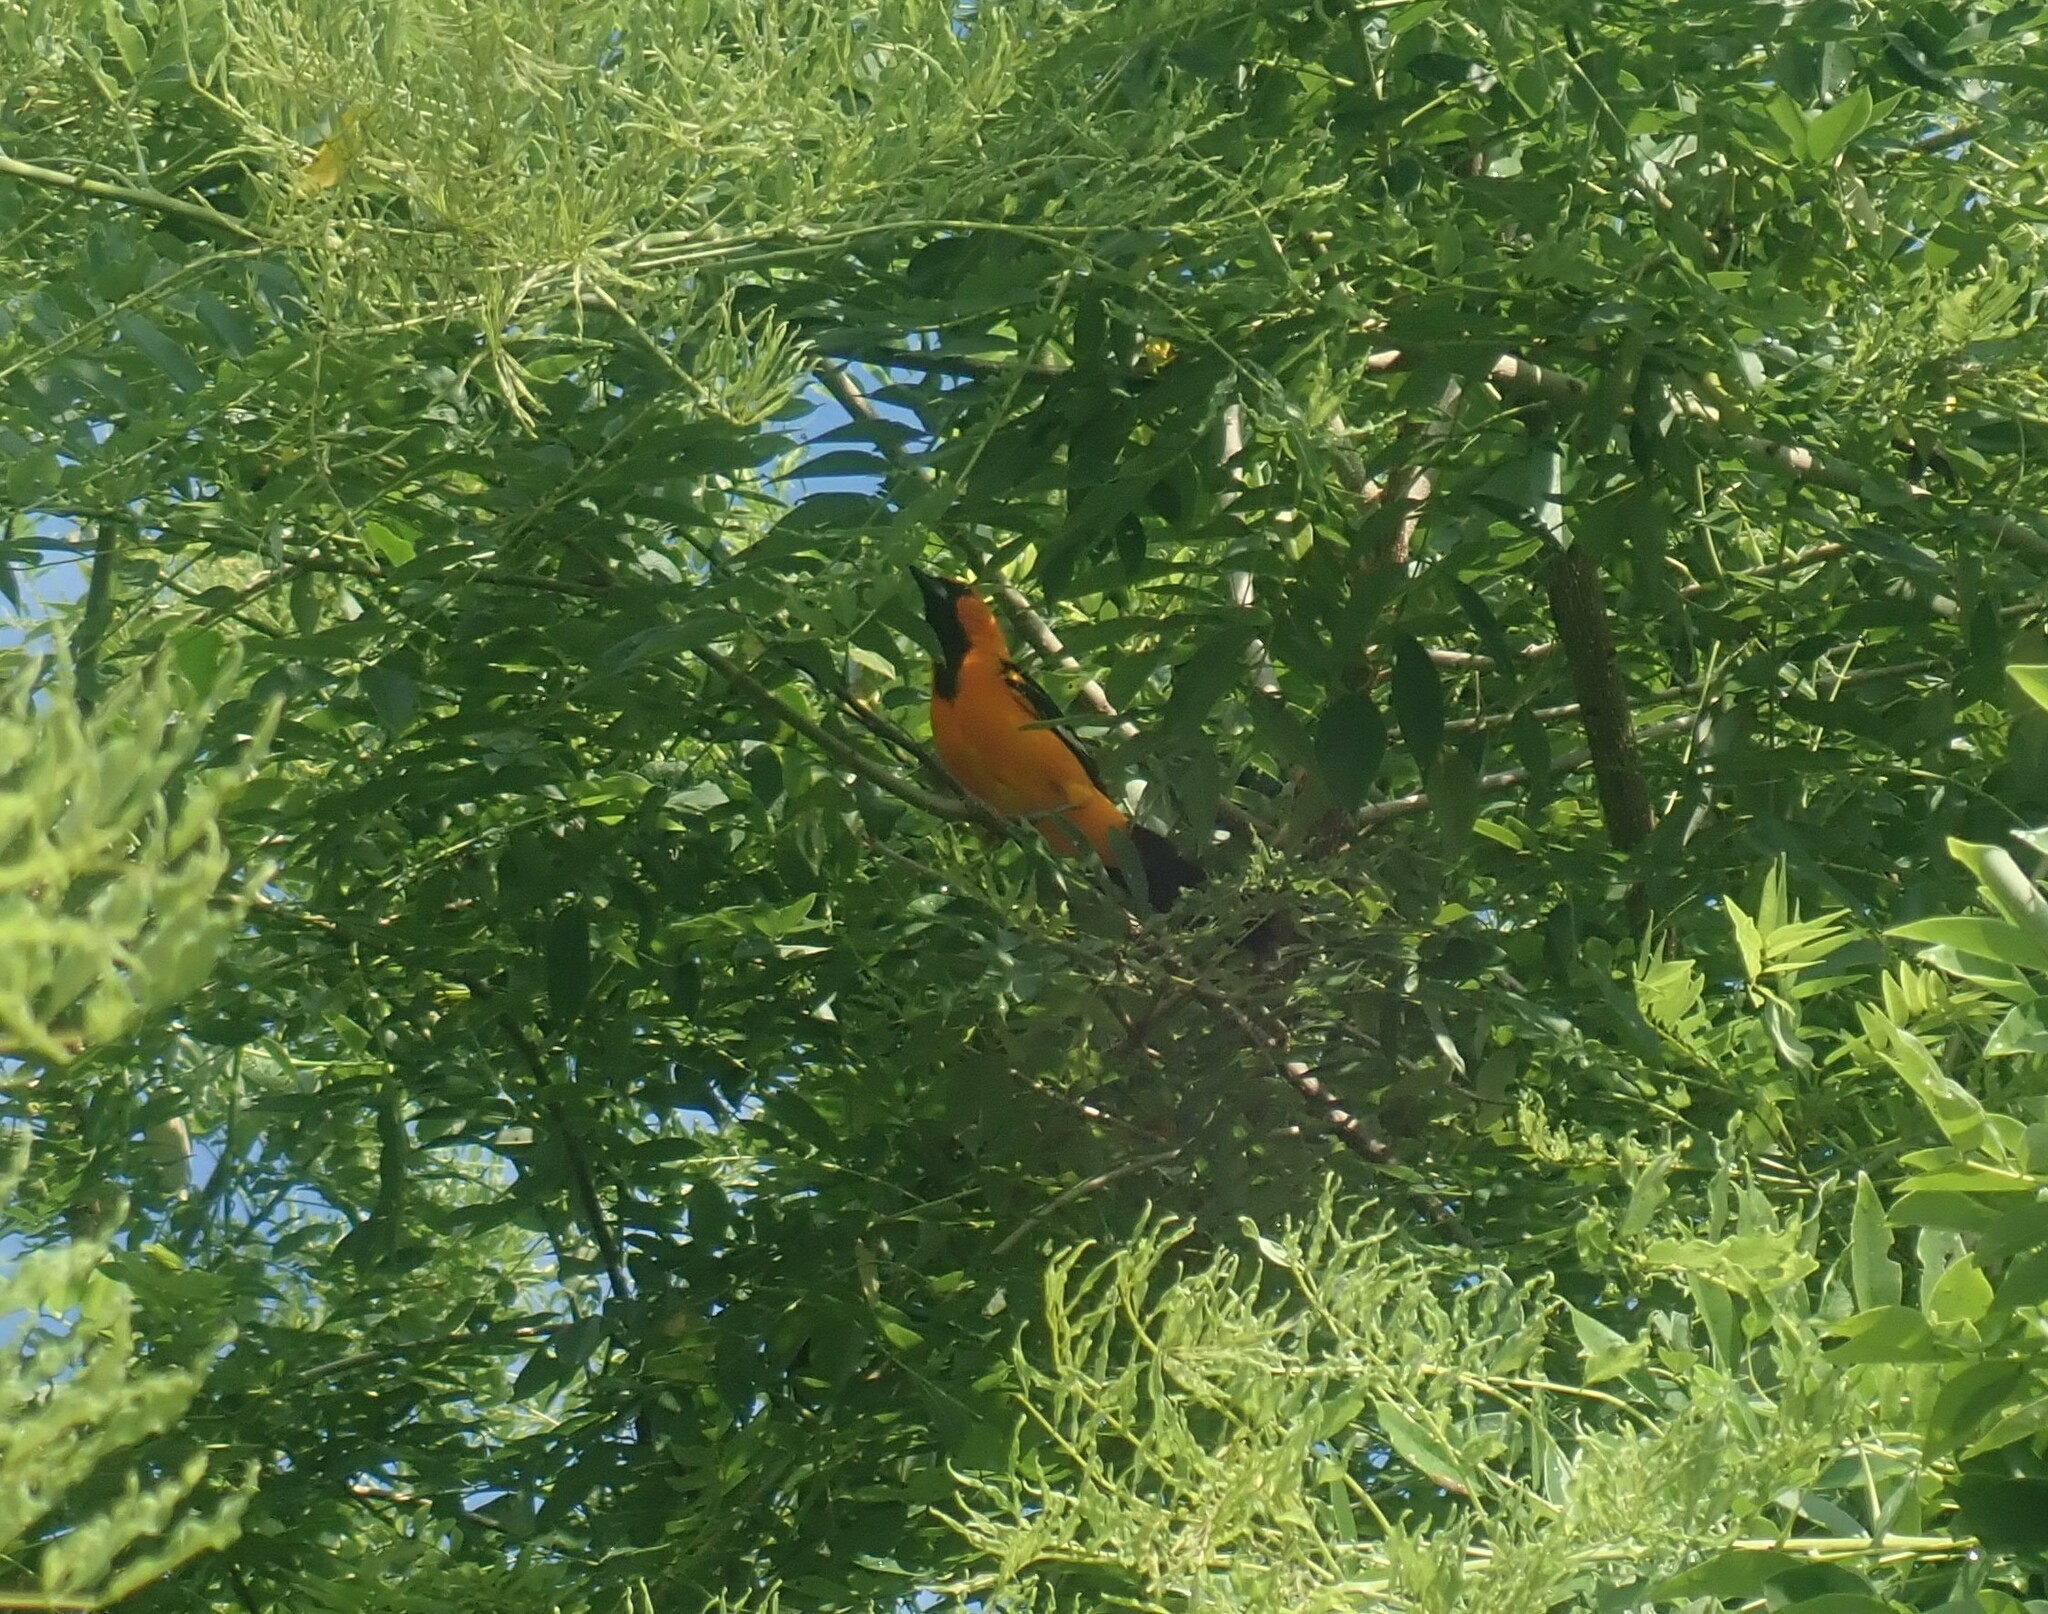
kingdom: Animalia
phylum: Chordata
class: Aves
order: Passeriformes
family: Icteridae
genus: Icterus
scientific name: Icterus gularis
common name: Altamira oriole
